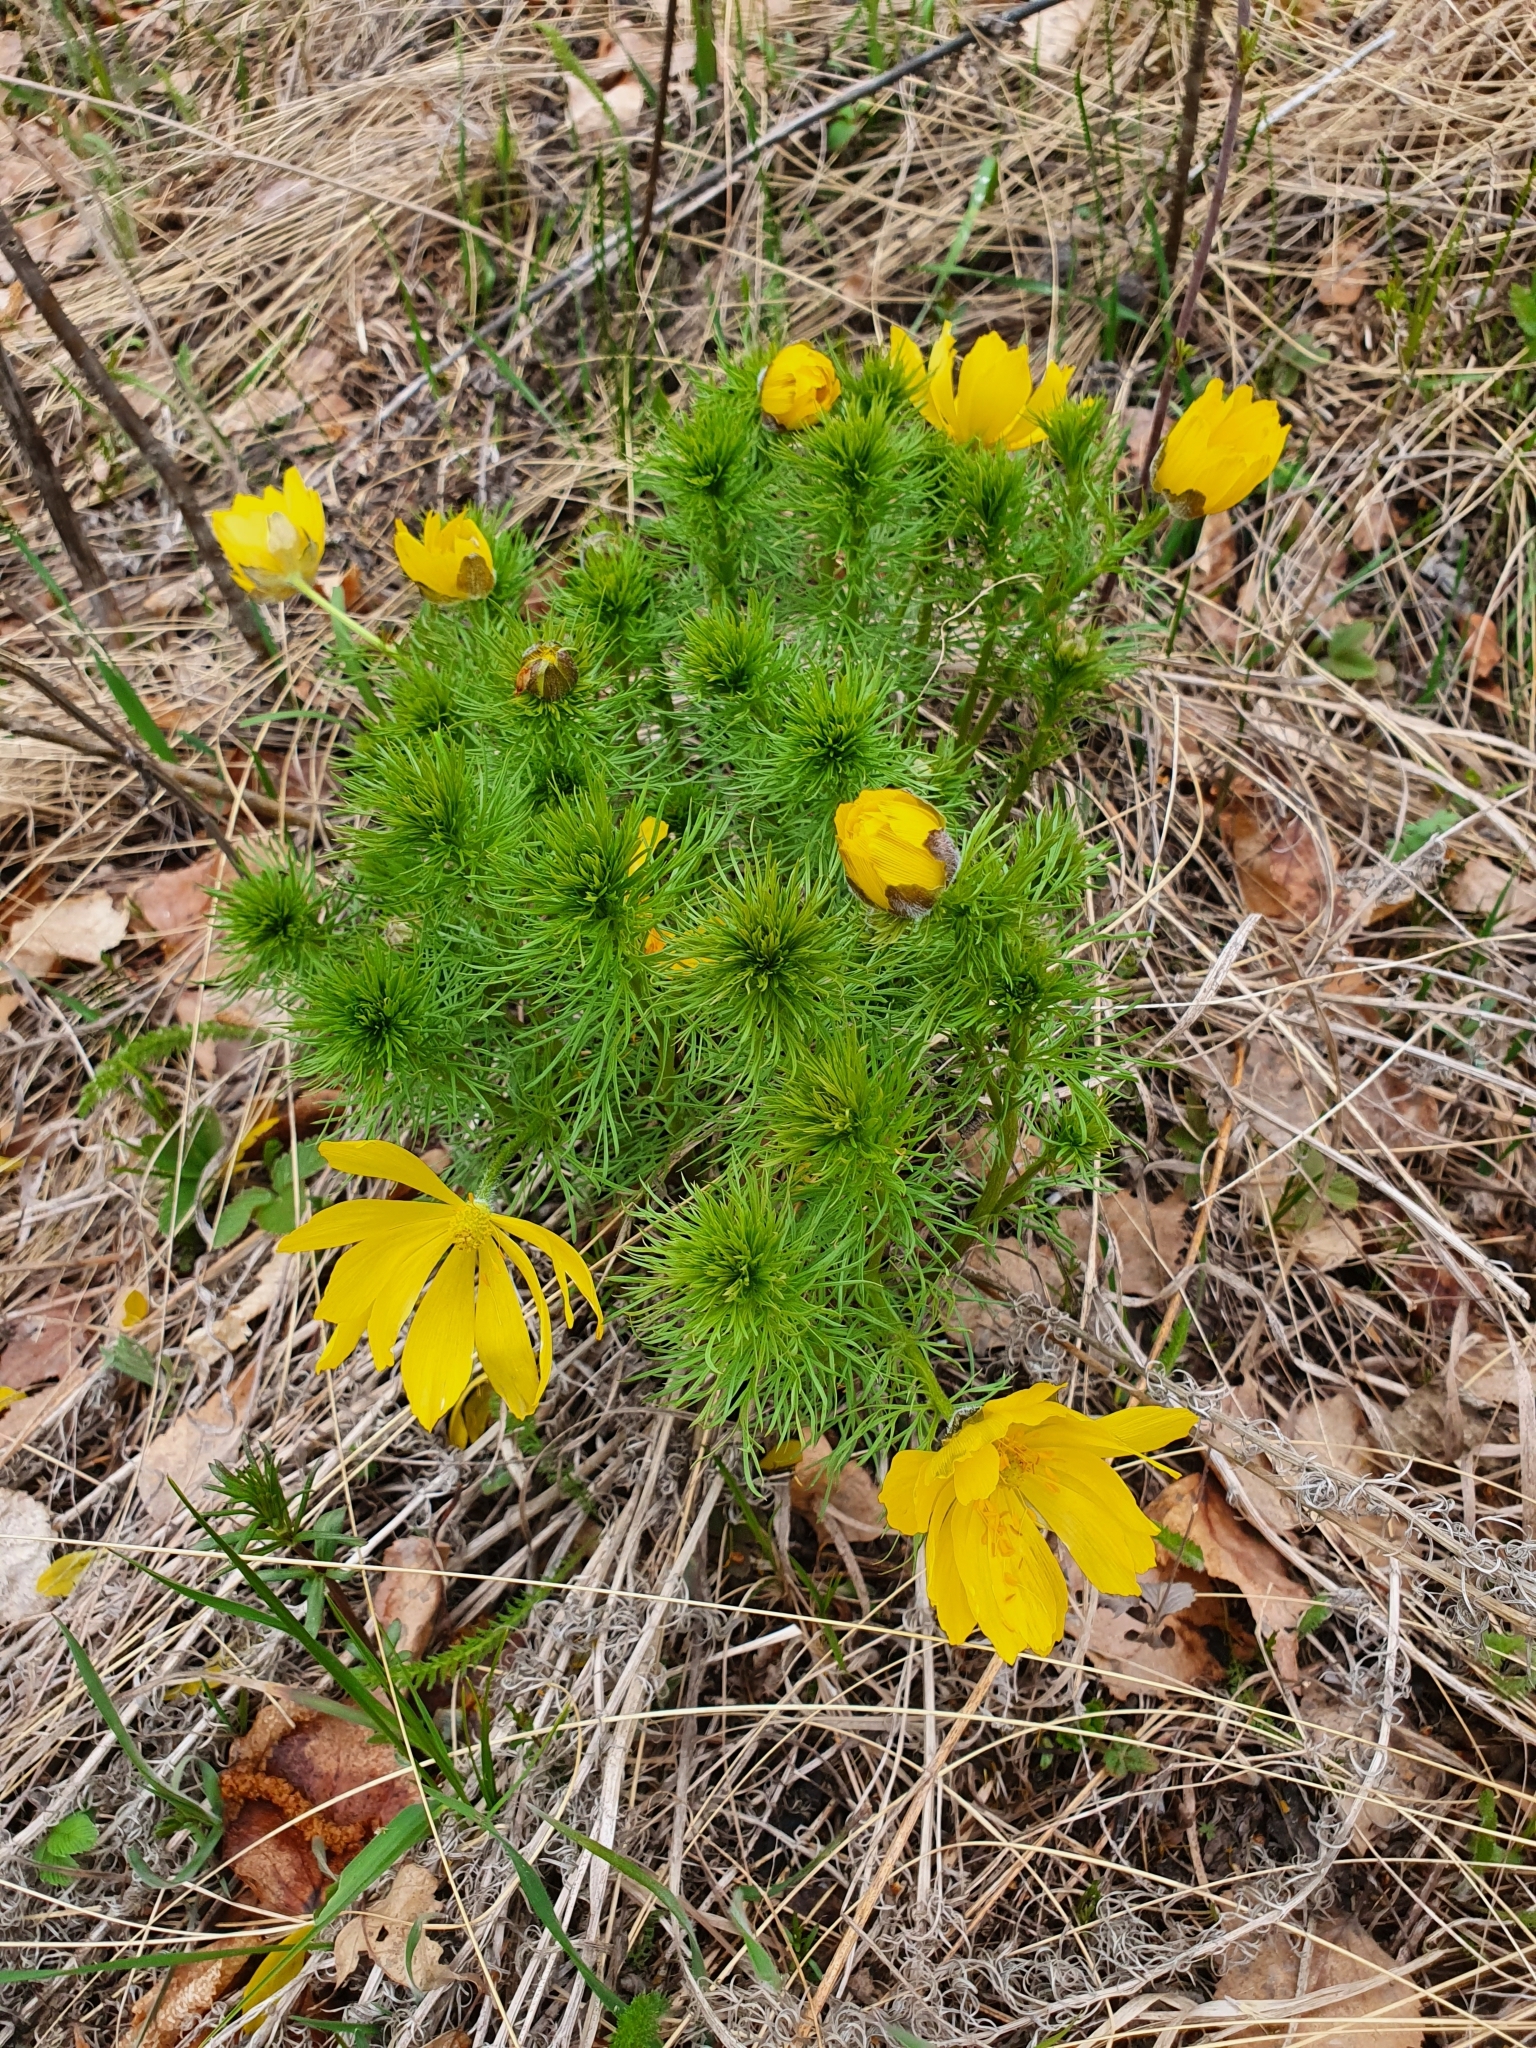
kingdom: Plantae
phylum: Tracheophyta
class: Magnoliopsida
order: Ranunculales
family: Ranunculaceae
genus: Adonis
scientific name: Adonis vernalis
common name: Yellow pheasants-eye
